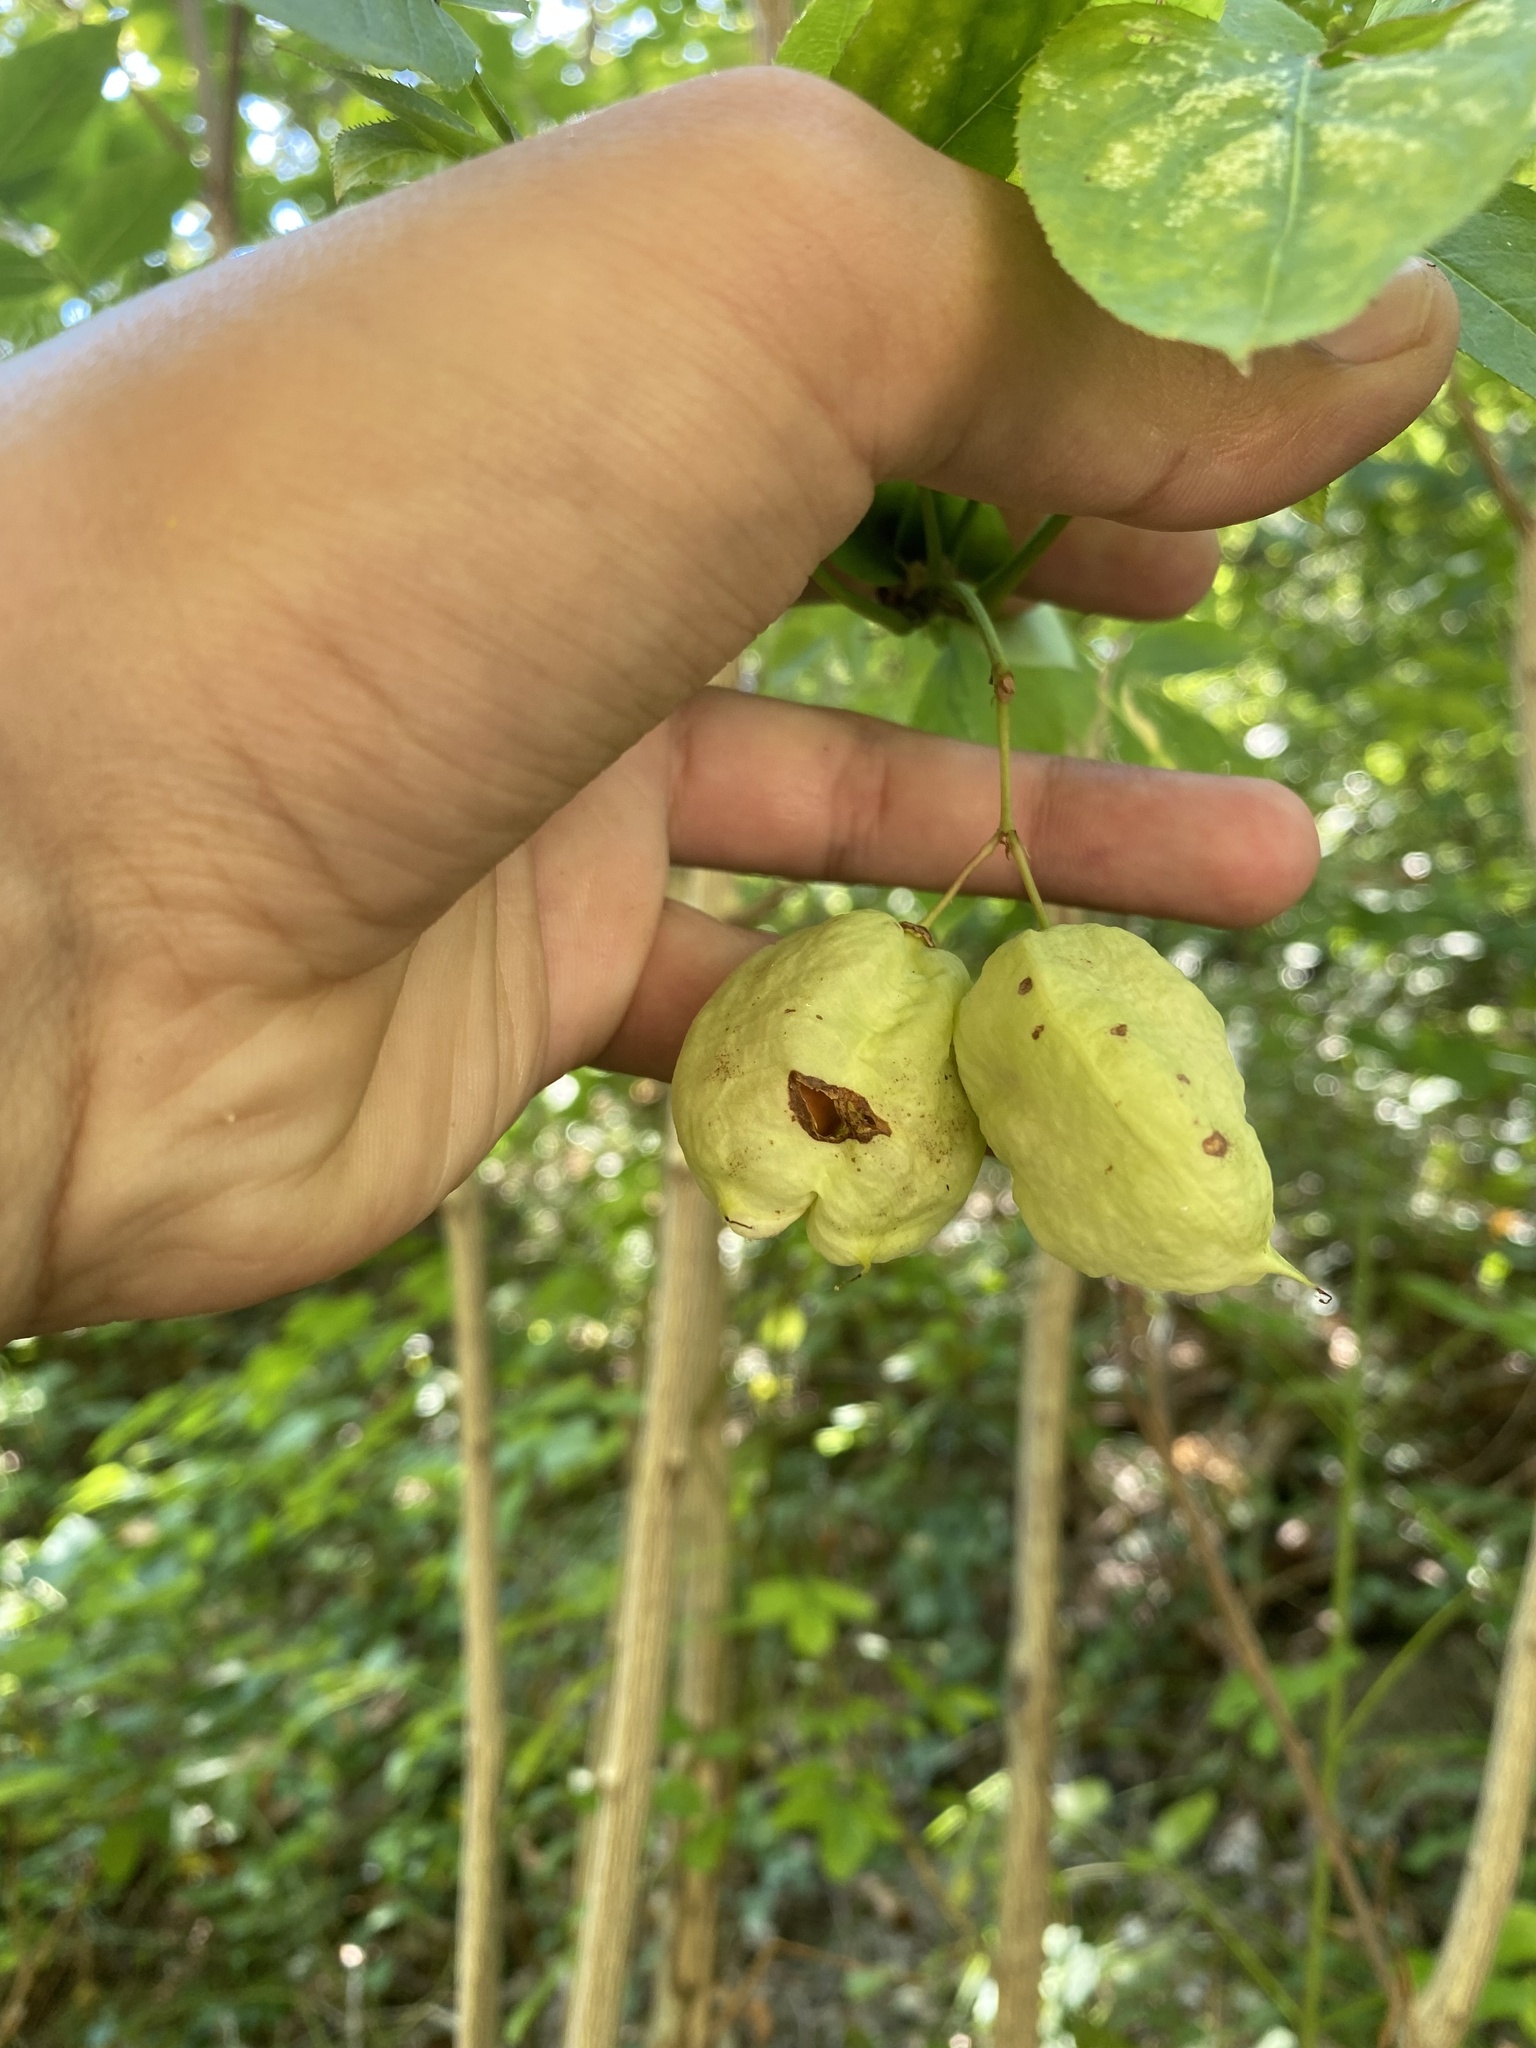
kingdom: Plantae
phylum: Tracheophyta
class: Magnoliopsida
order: Crossosomatales
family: Staphyleaceae
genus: Staphylea
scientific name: Staphylea pinnata
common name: Bladdernut
